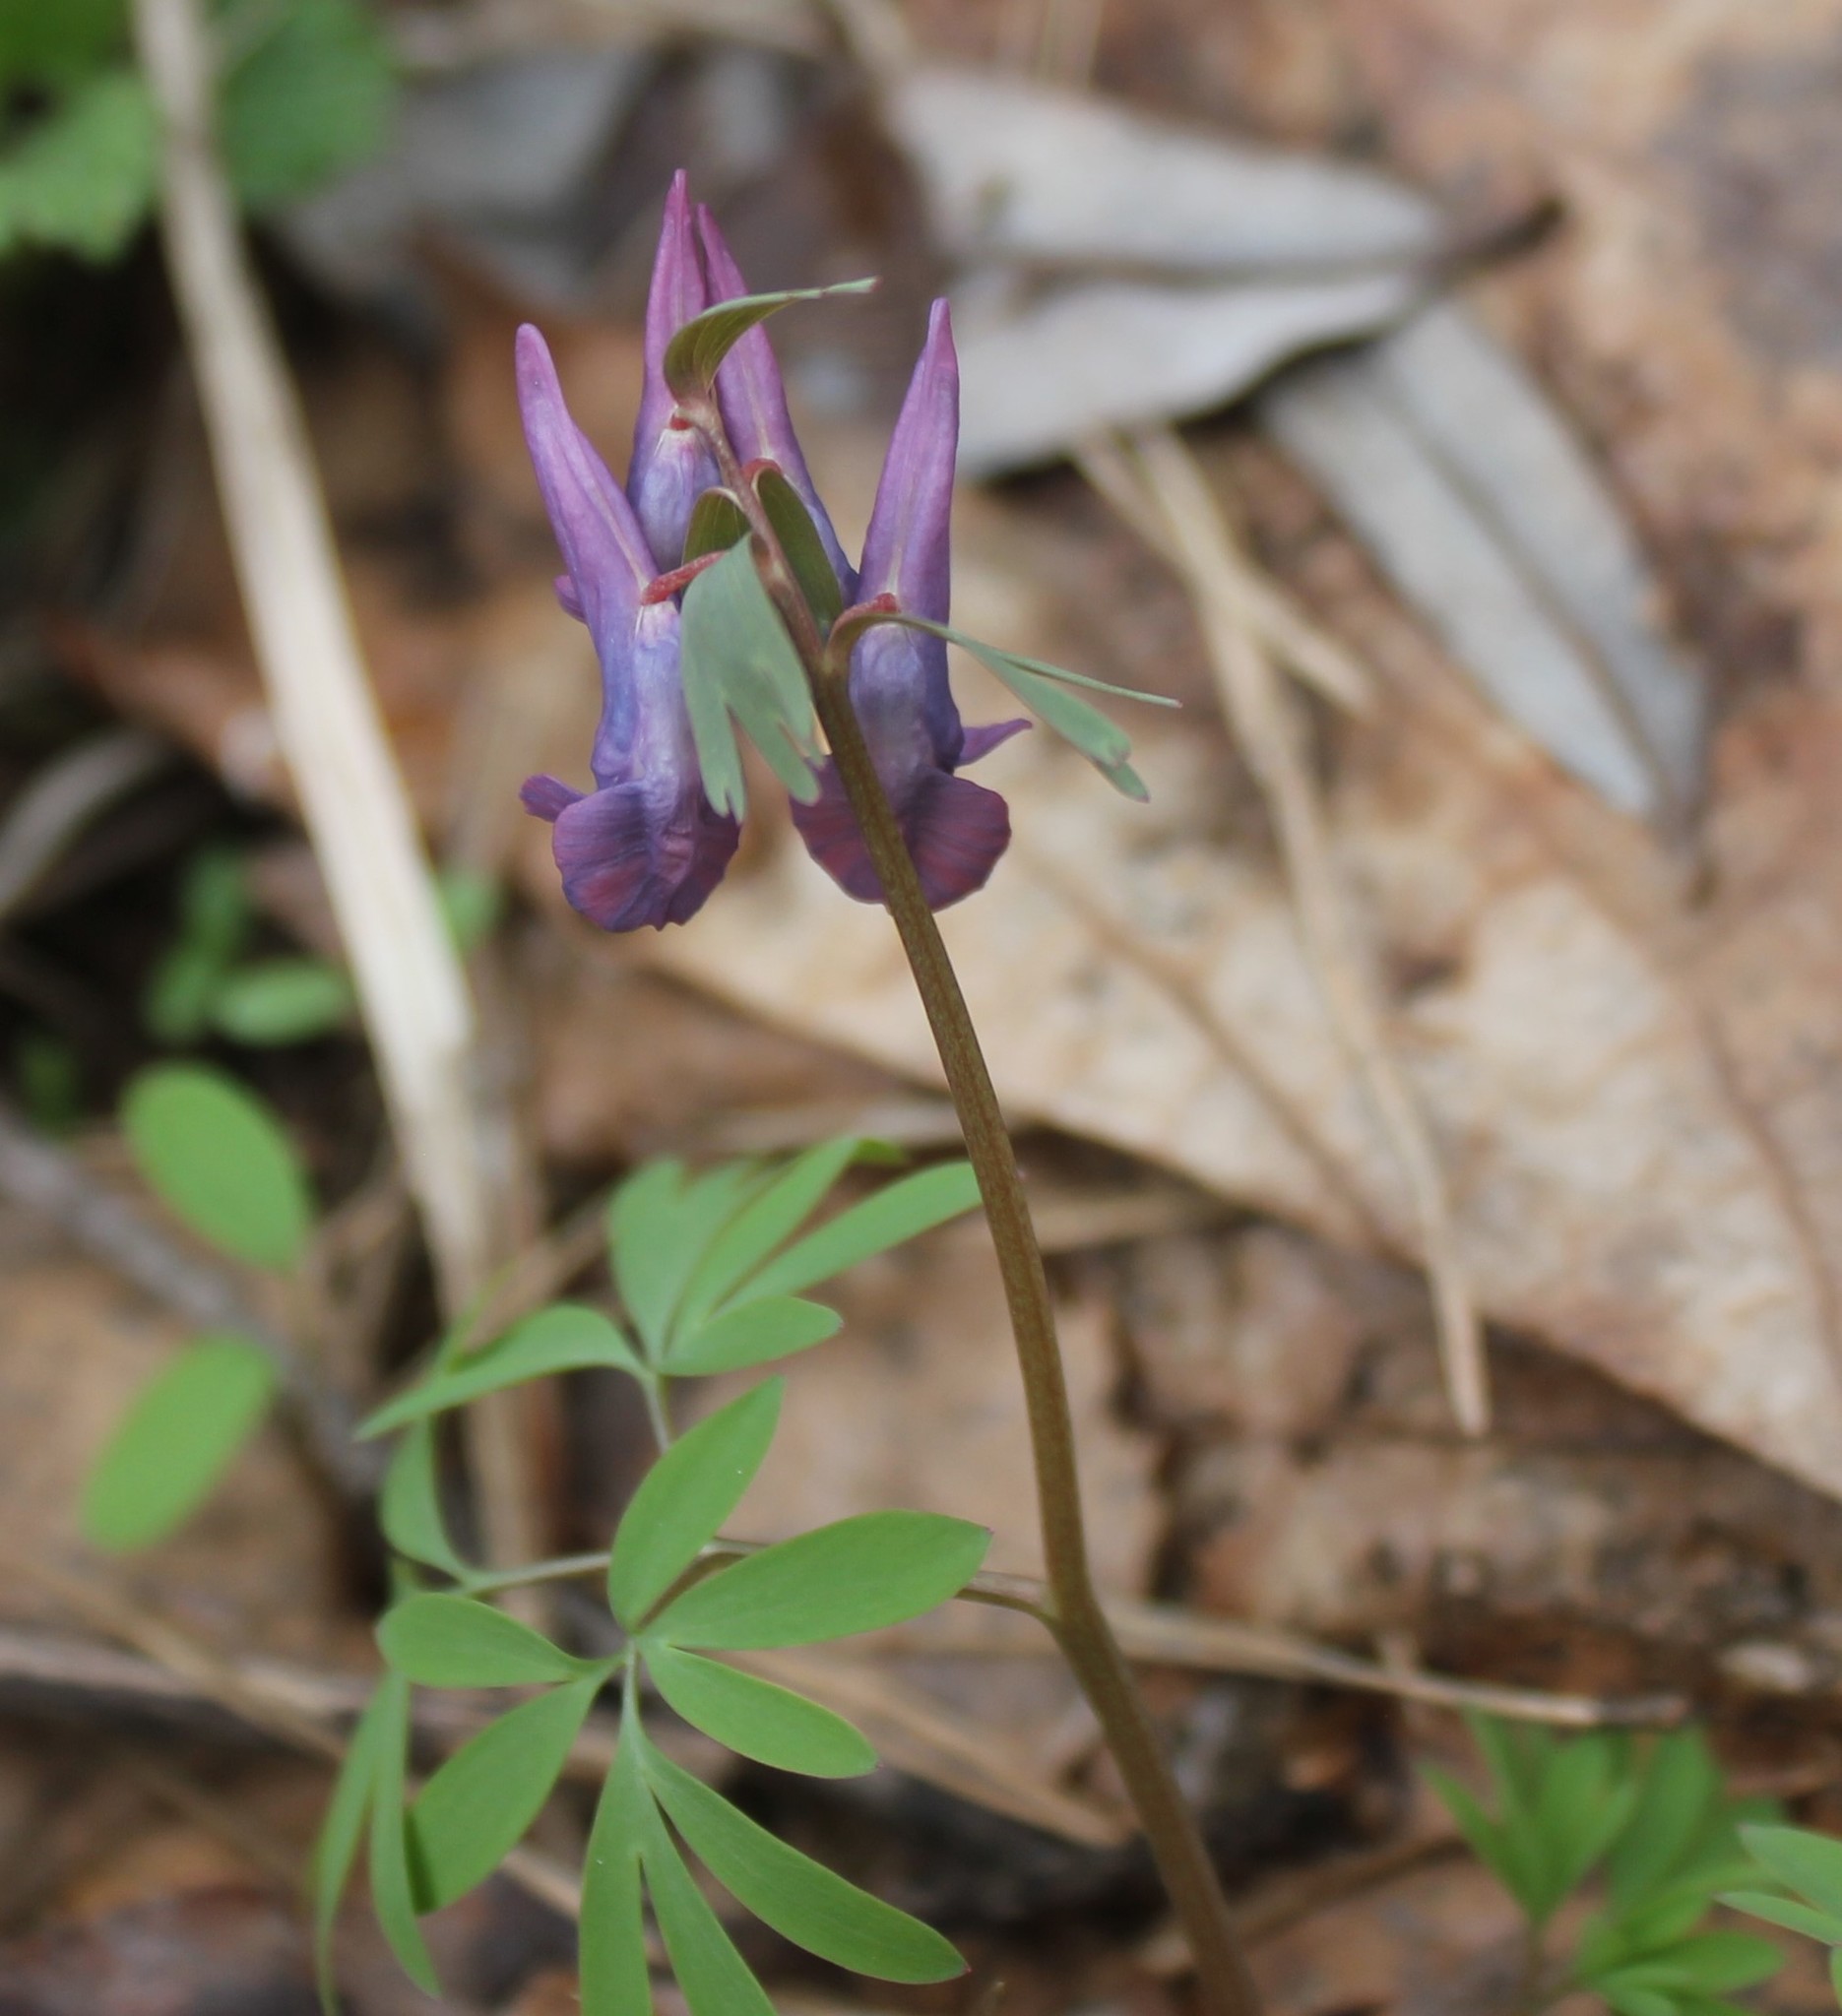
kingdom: Plantae
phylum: Tracheophyta
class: Magnoliopsida
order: Ranunculales
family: Papaveraceae
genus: Corydalis
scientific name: Corydalis solida
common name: Bird-in-a-bush
